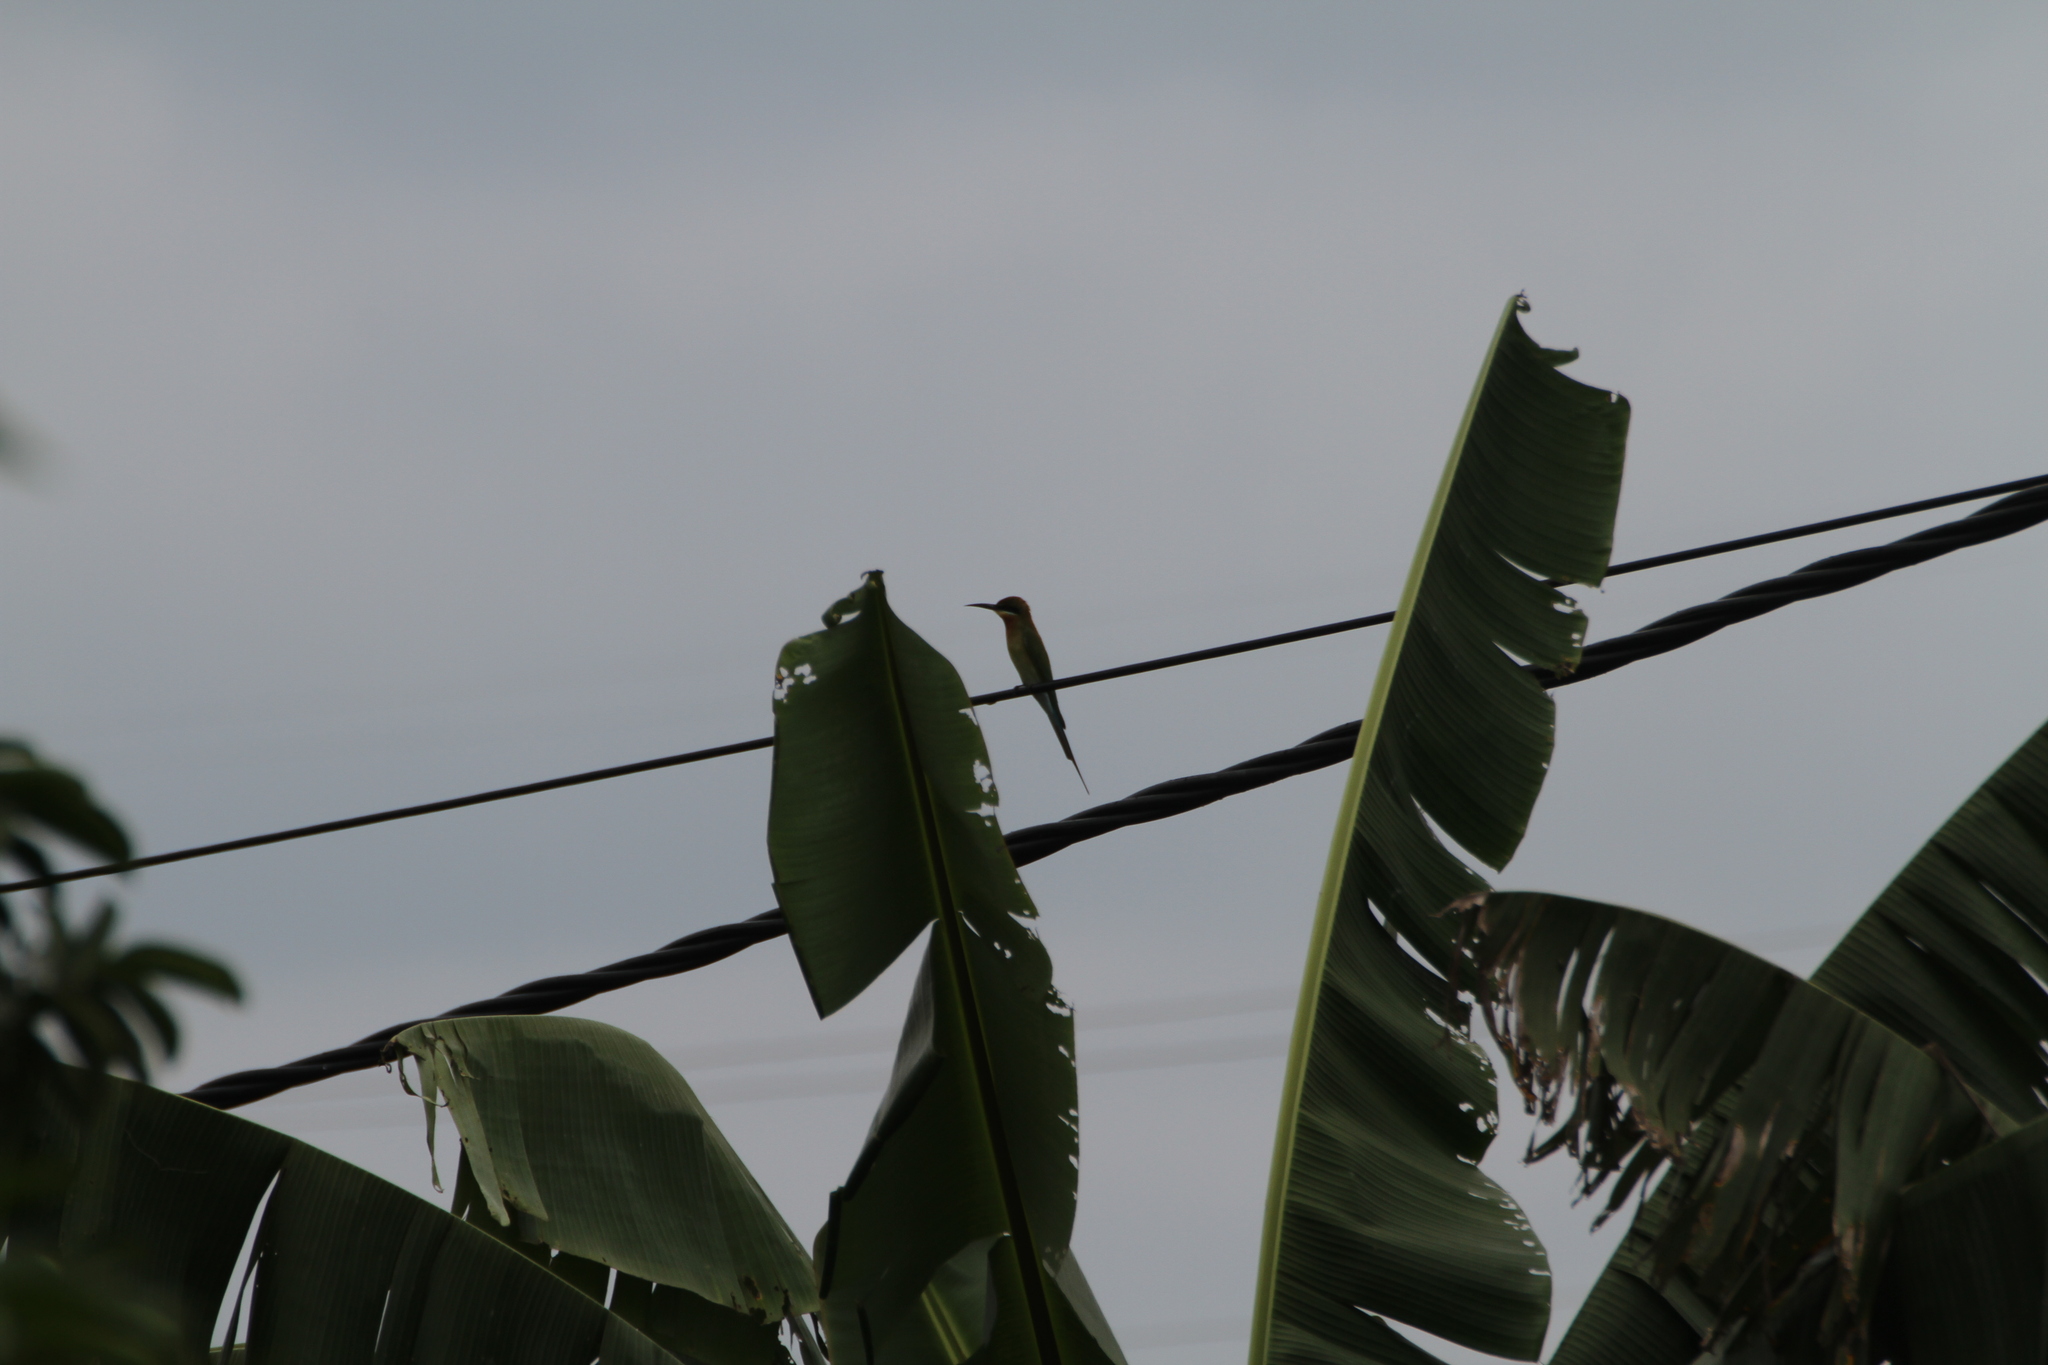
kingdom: Animalia
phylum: Chordata
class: Aves
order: Coraciiformes
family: Meropidae
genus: Merops
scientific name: Merops philippinus
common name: Blue-tailed bee-eater
